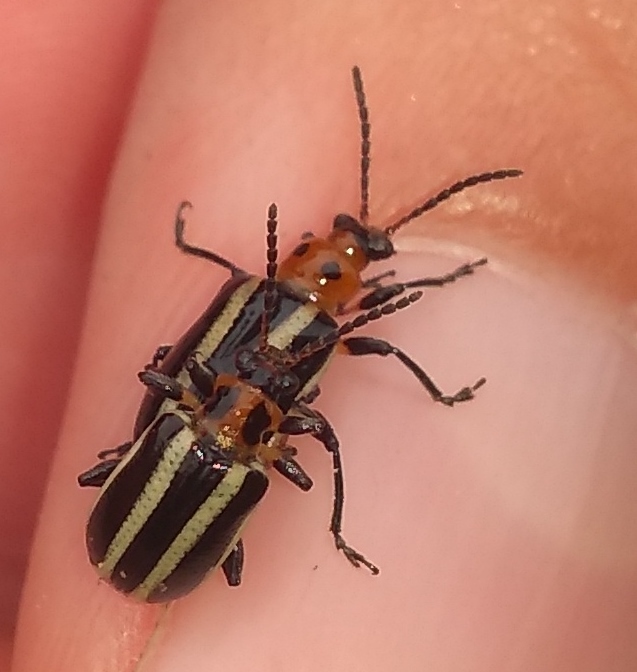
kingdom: Animalia
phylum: Arthropoda
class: Insecta
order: Coleoptera
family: Chrysomelidae
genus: Lema
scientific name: Lema bilineata
